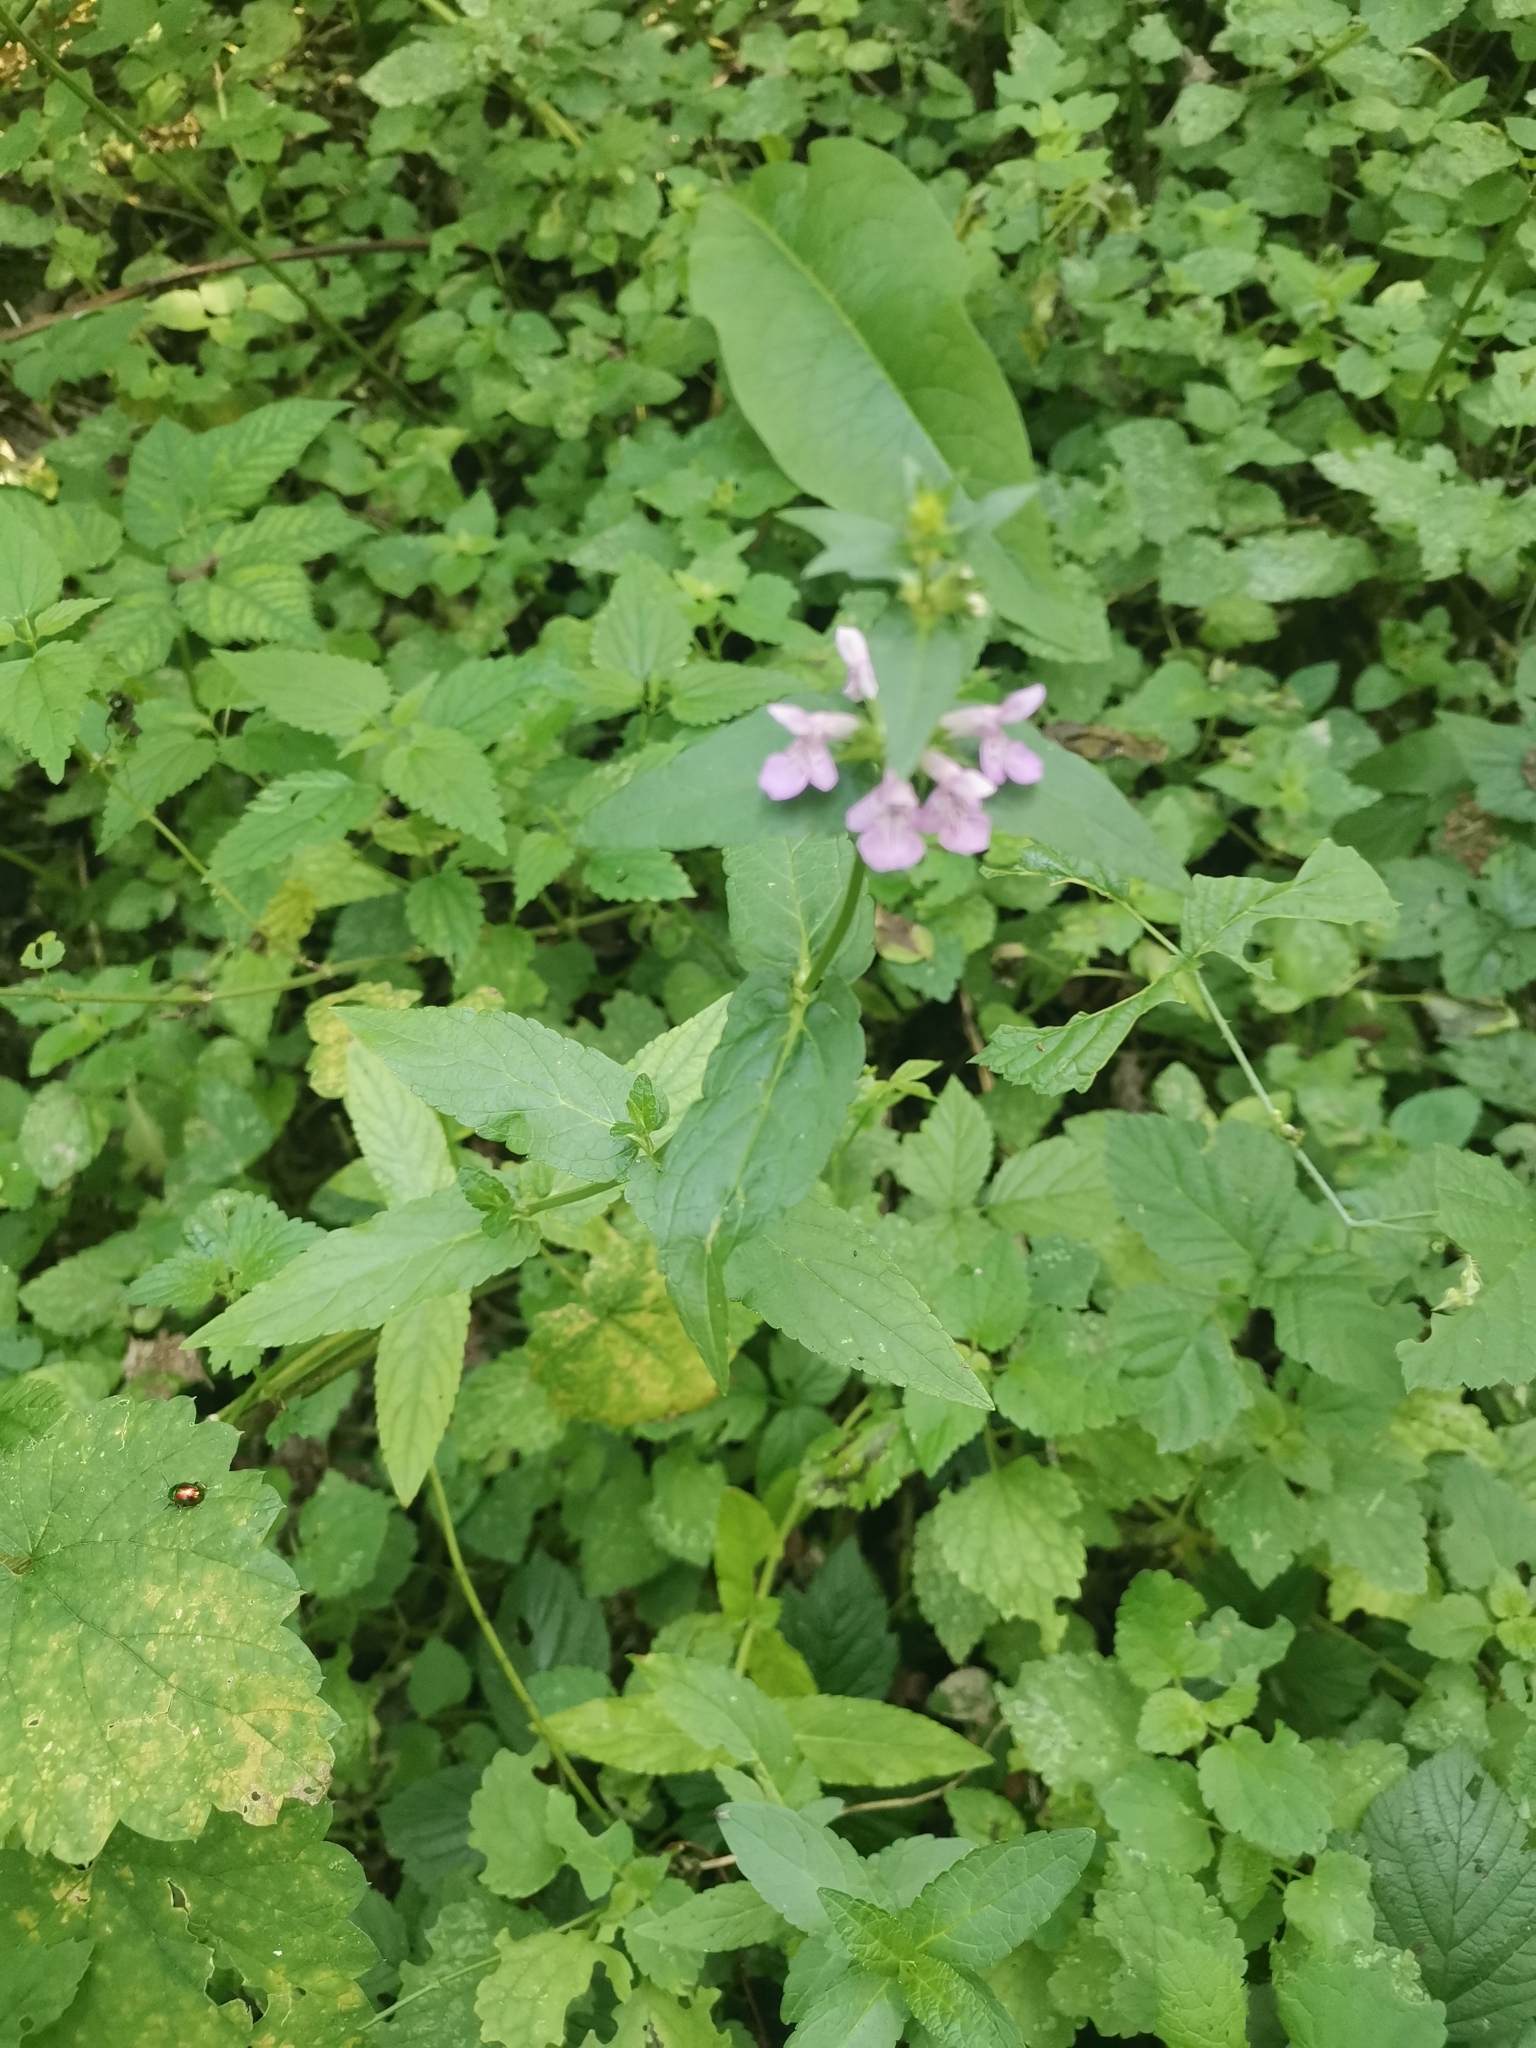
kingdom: Plantae
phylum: Tracheophyta
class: Magnoliopsida
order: Lamiales
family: Lamiaceae
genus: Stachys
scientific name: Stachys palustris
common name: Marsh woundwort
